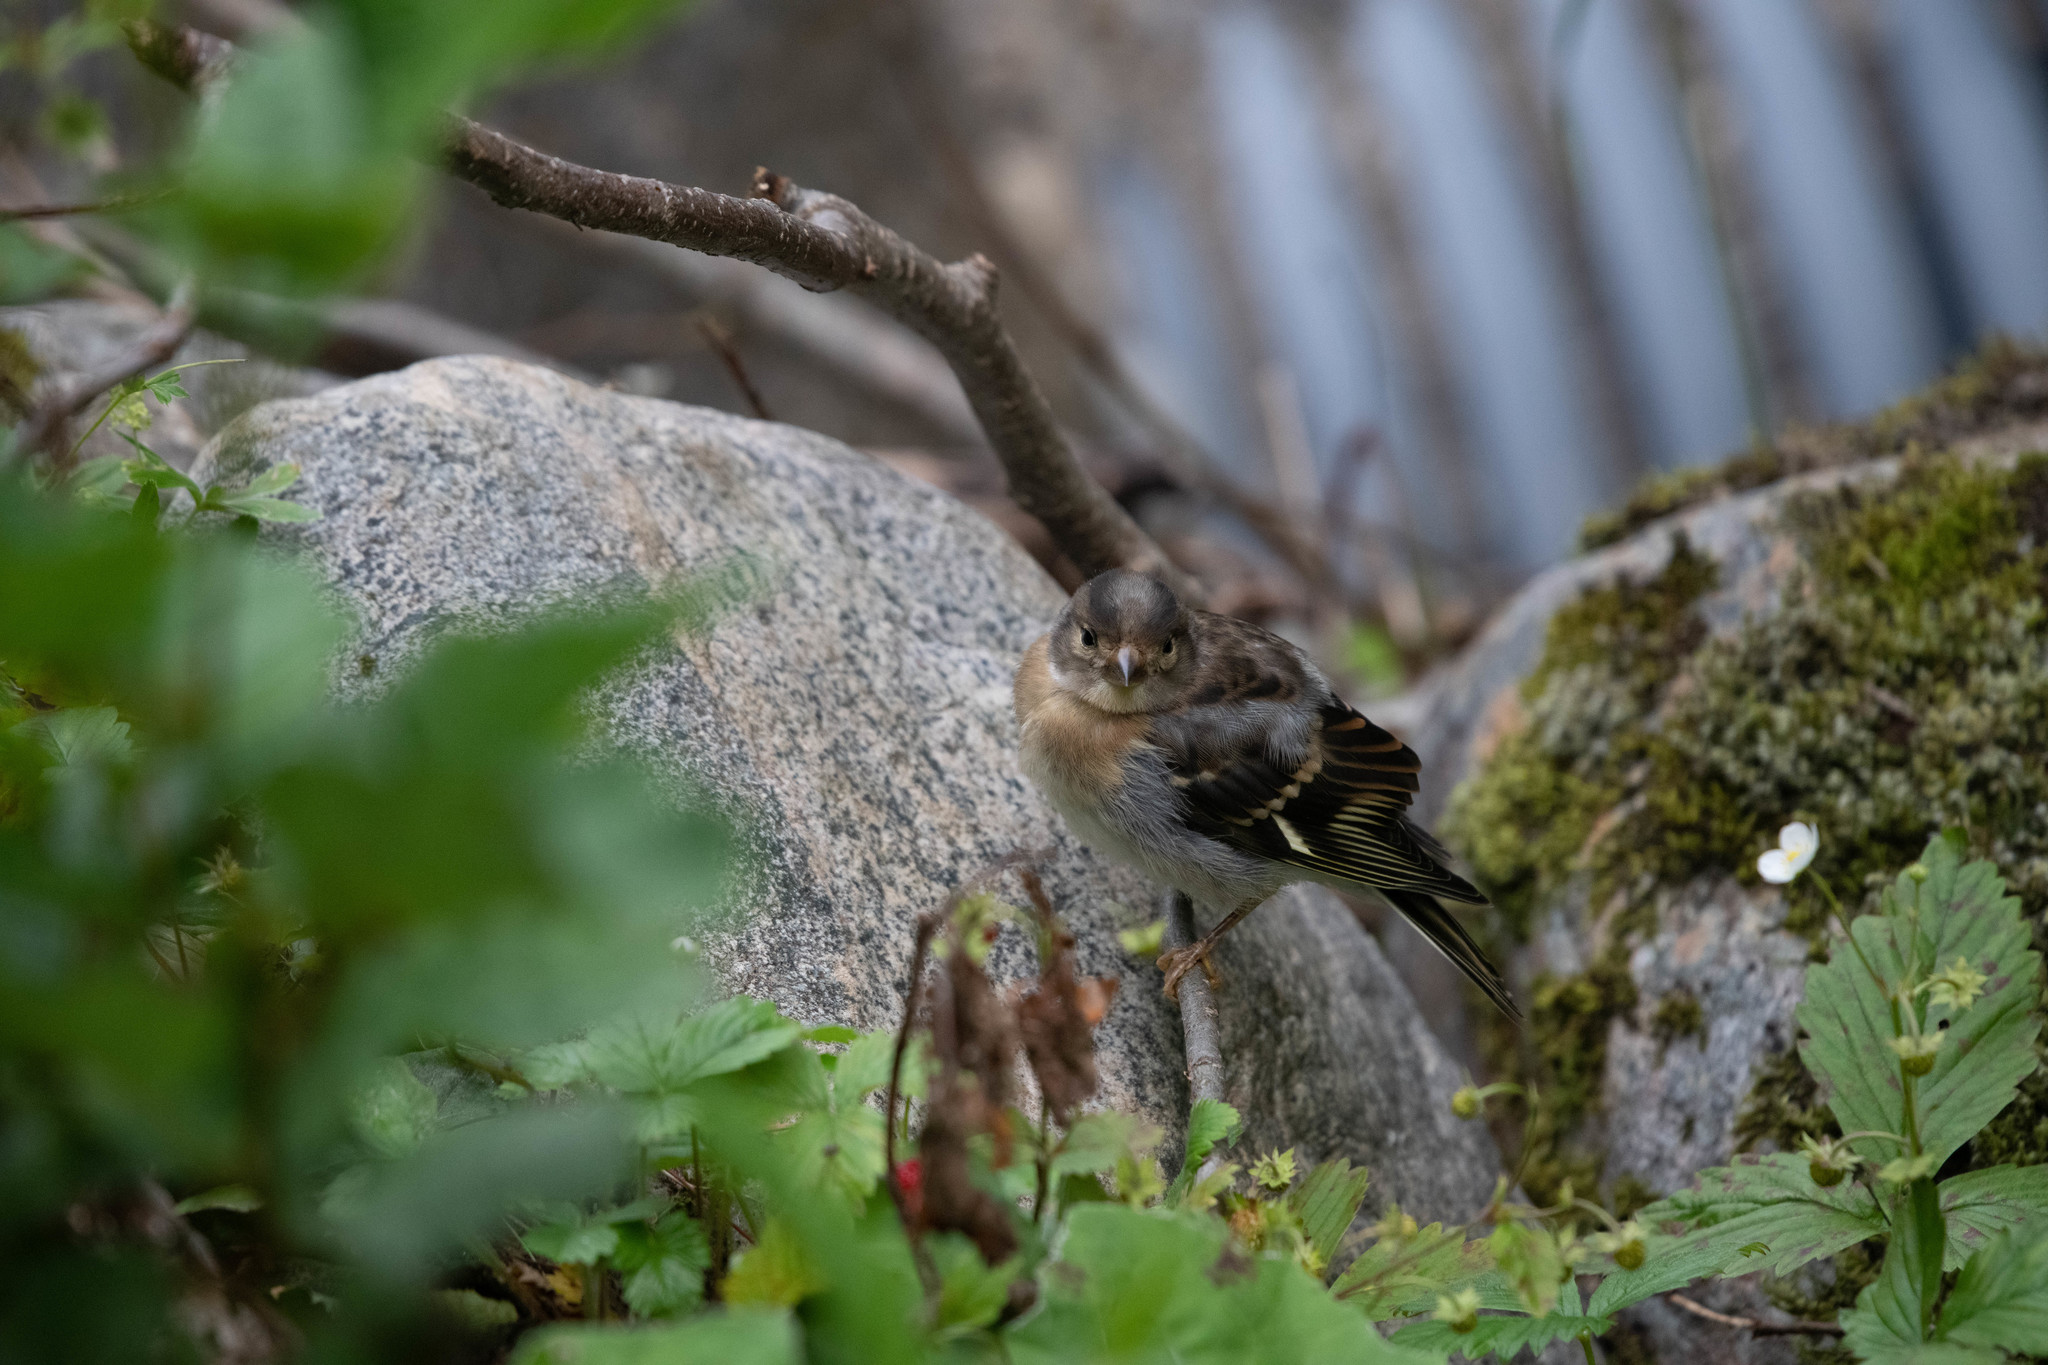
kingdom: Animalia
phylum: Chordata
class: Aves
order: Passeriformes
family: Fringillidae
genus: Fringilla
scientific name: Fringilla montifringilla
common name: Brambling
